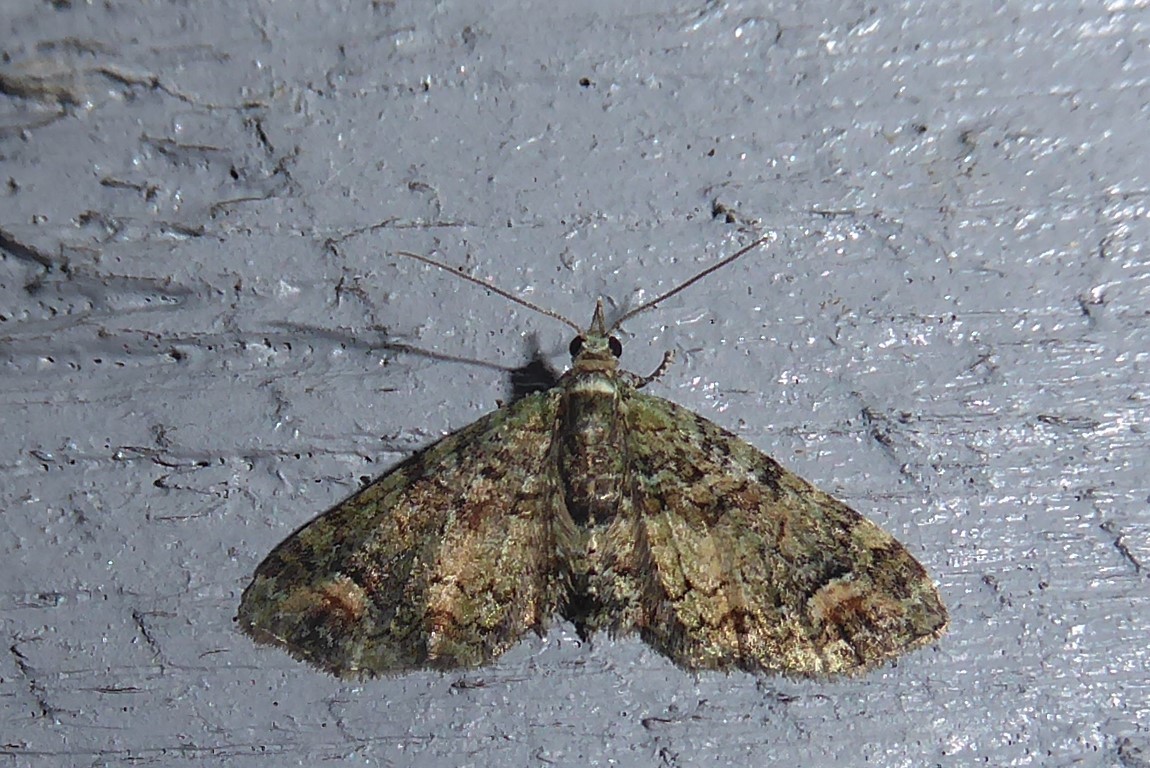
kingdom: Animalia
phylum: Arthropoda
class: Insecta
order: Lepidoptera
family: Geometridae
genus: Idaea
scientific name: Idaea mutanda
